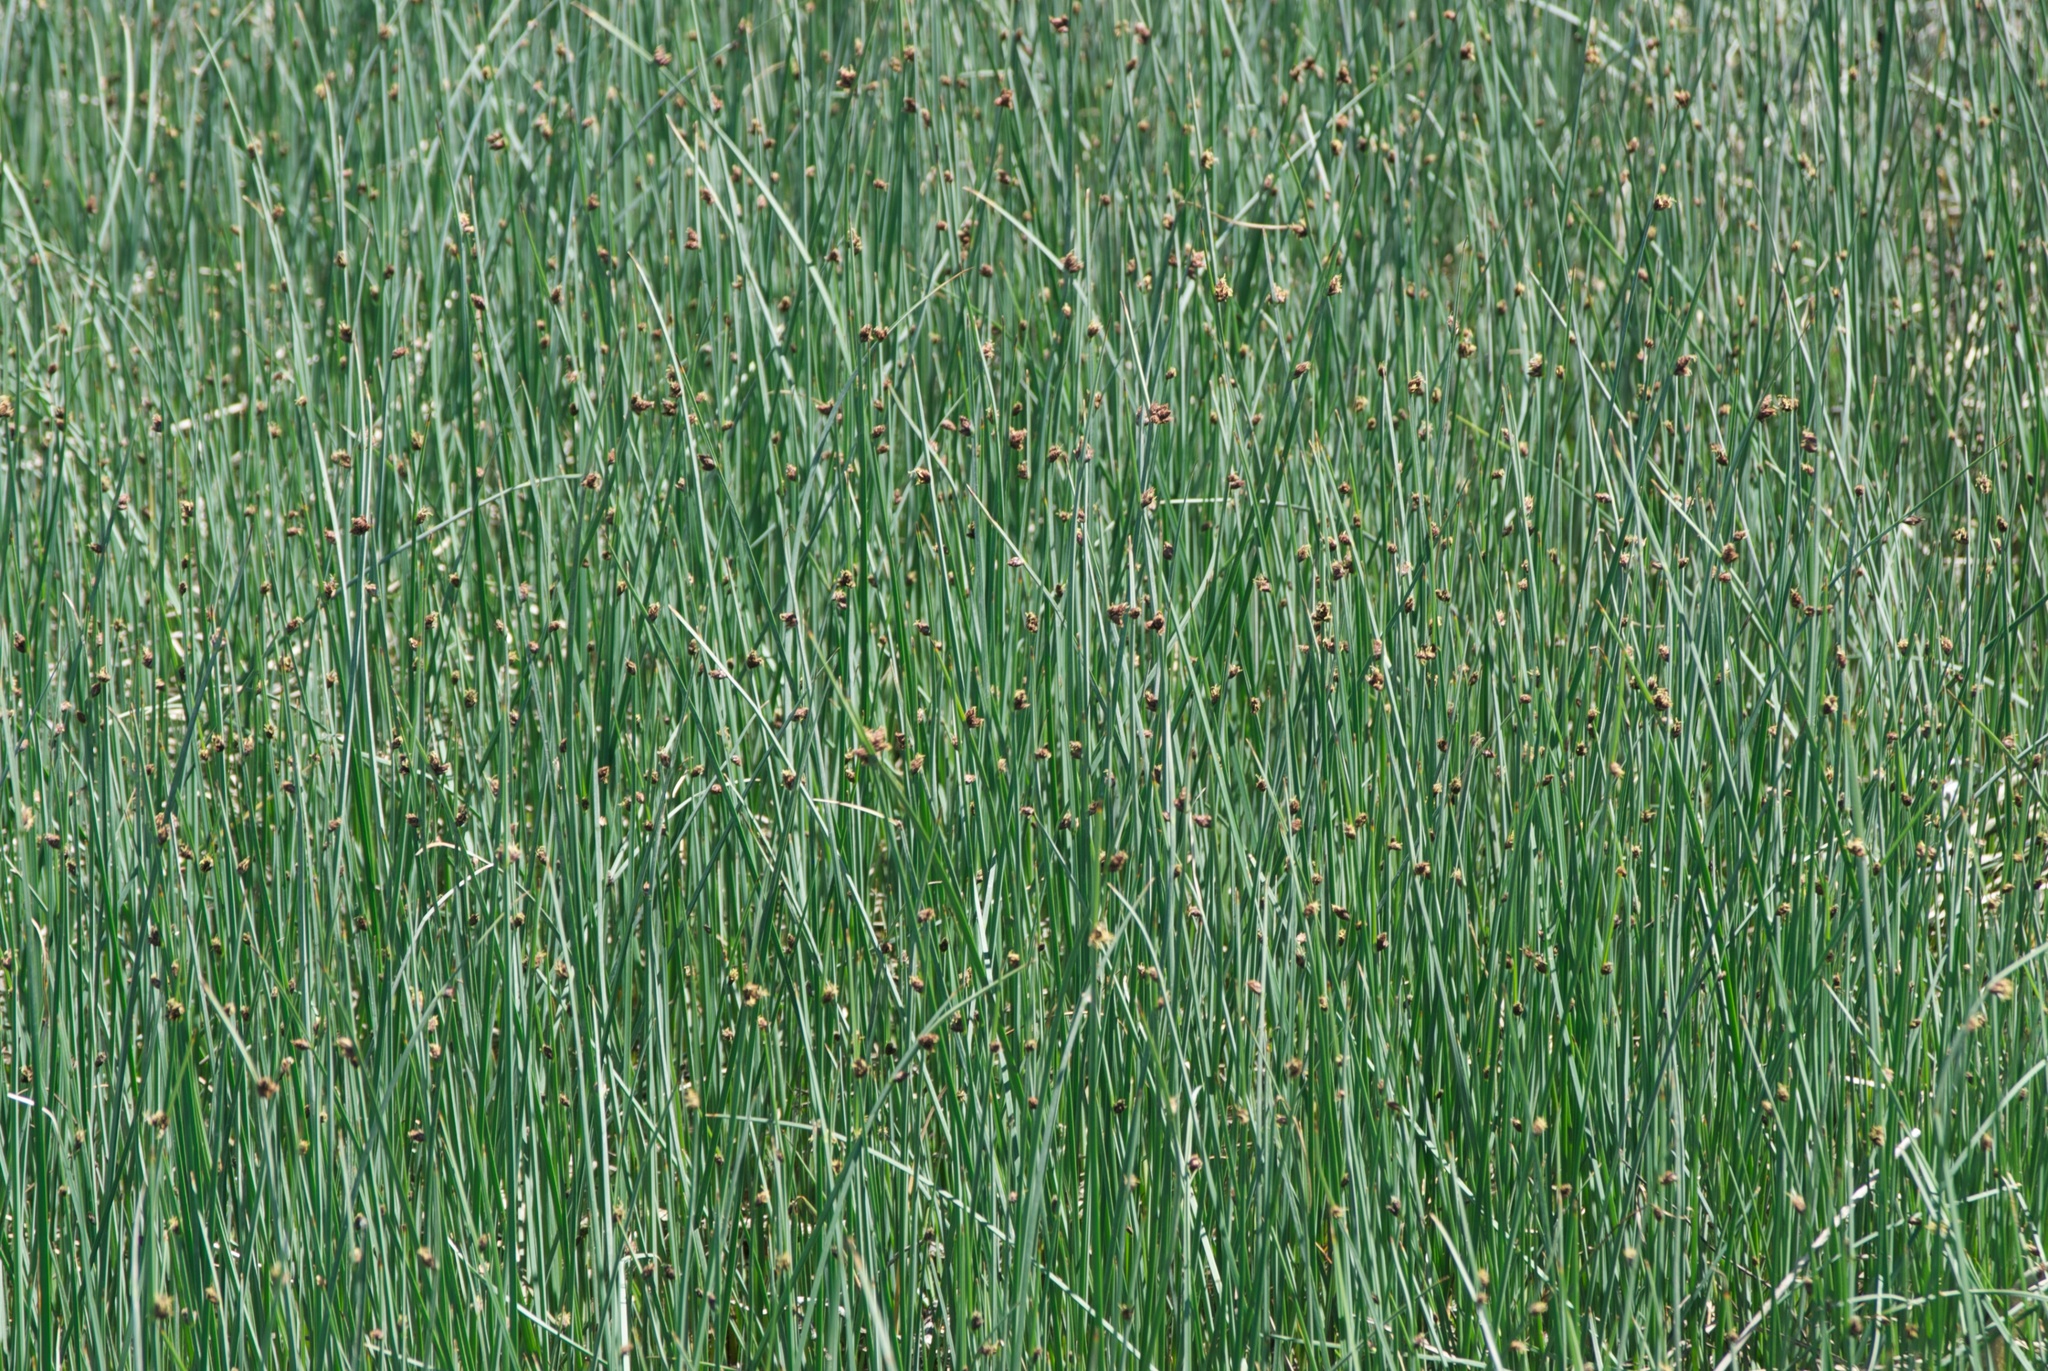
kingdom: Plantae
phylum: Tracheophyta
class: Liliopsida
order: Poales
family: Cyperaceae
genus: Schoenoplectus
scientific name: Schoenoplectus pungens
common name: Sharp club-rush
